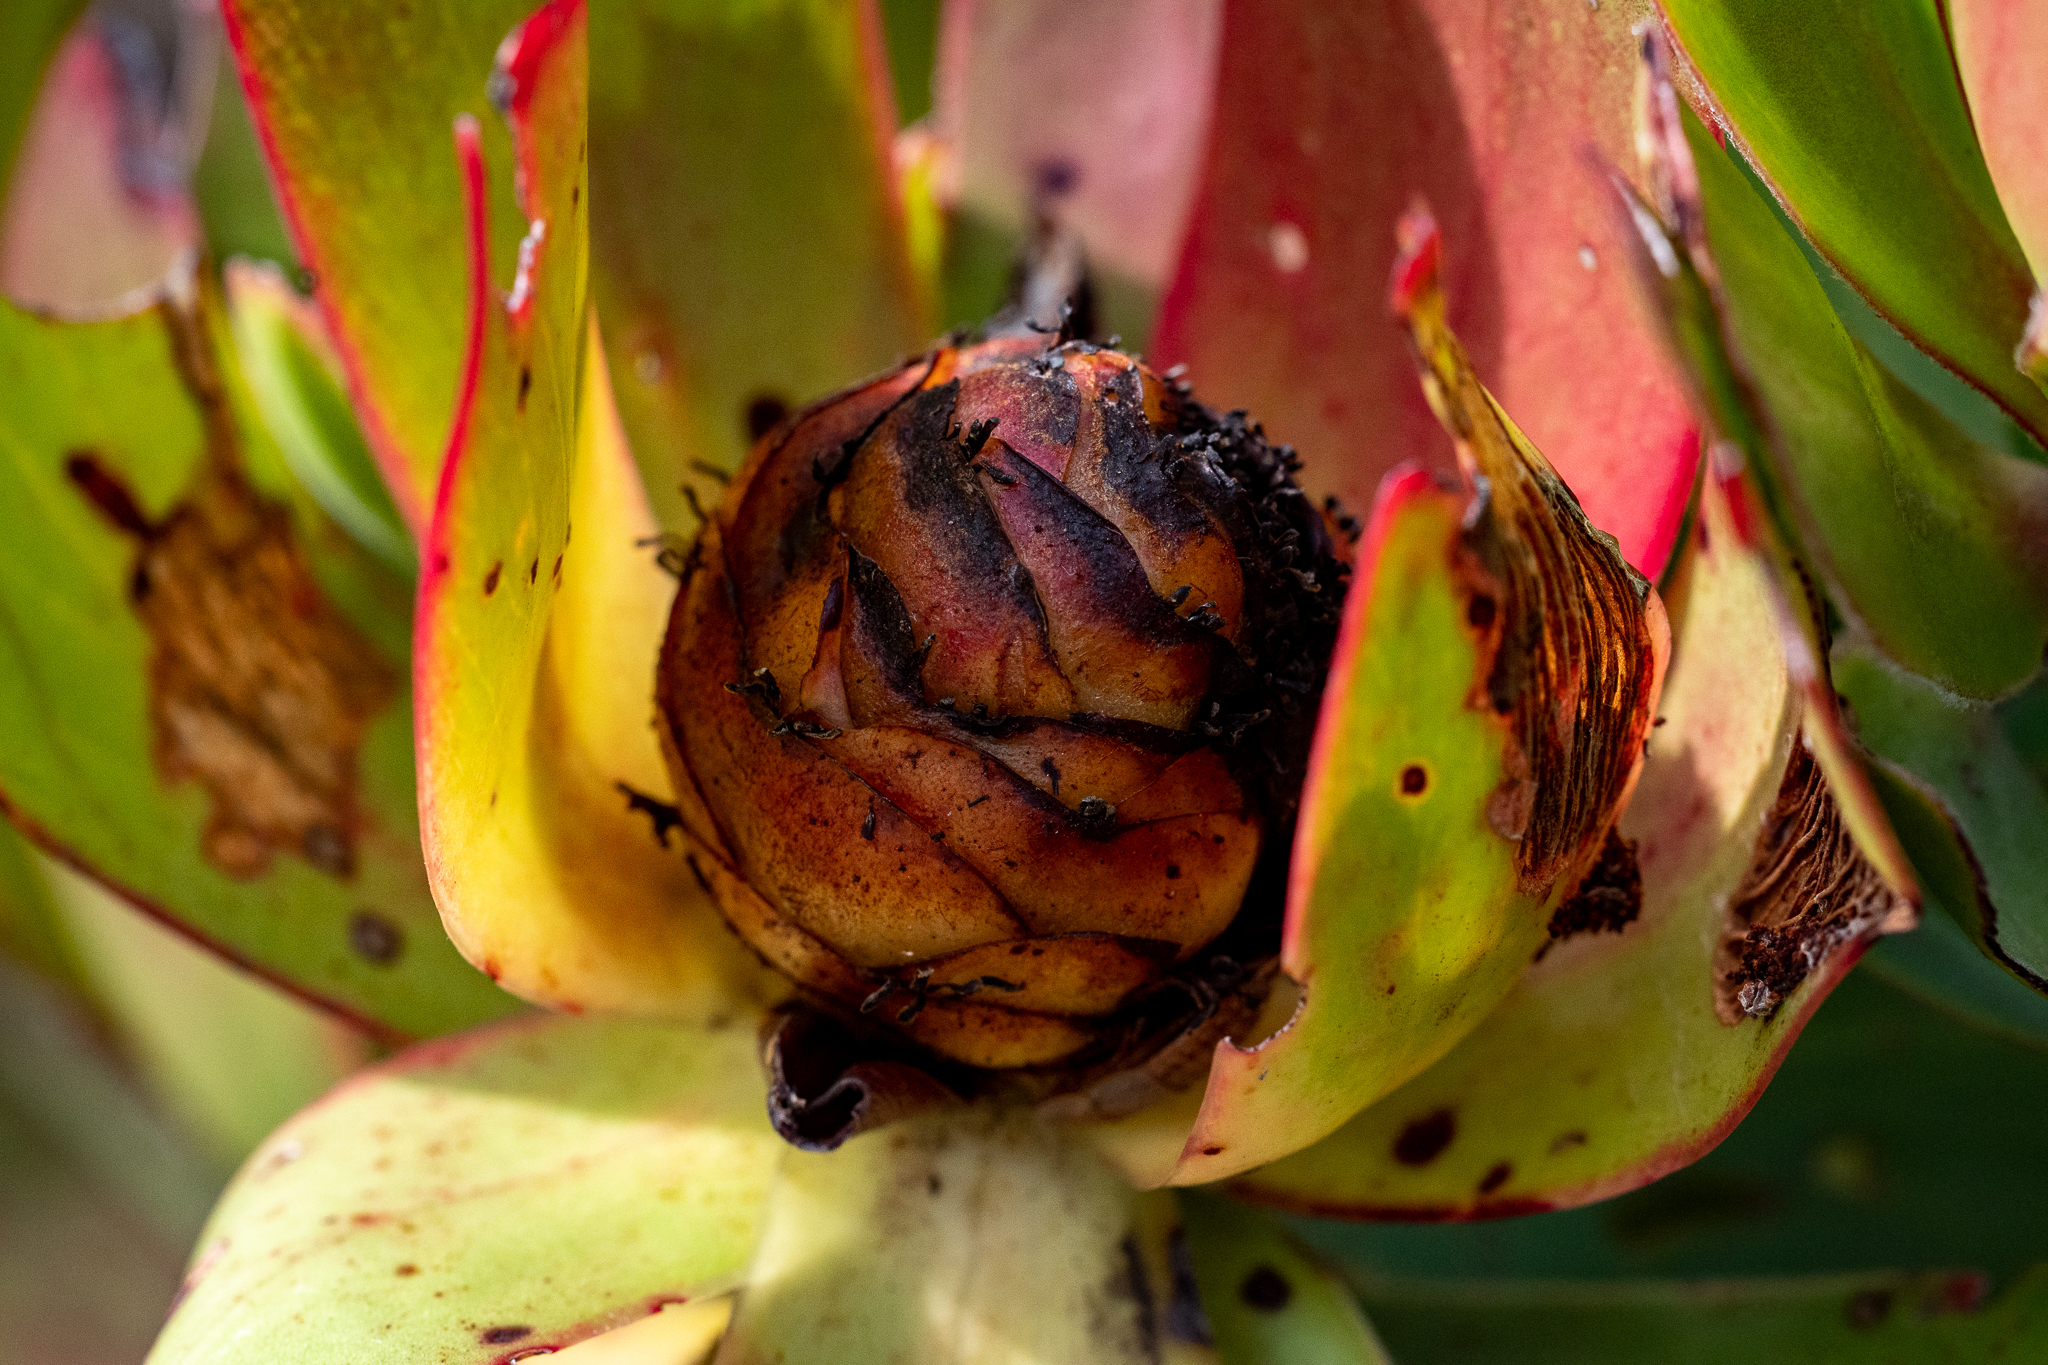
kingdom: Plantae
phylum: Tracheophyta
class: Magnoliopsida
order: Proteales
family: Proteaceae
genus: Leucadendron
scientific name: Leucadendron gandogeri
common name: Broad-leaf conebush
